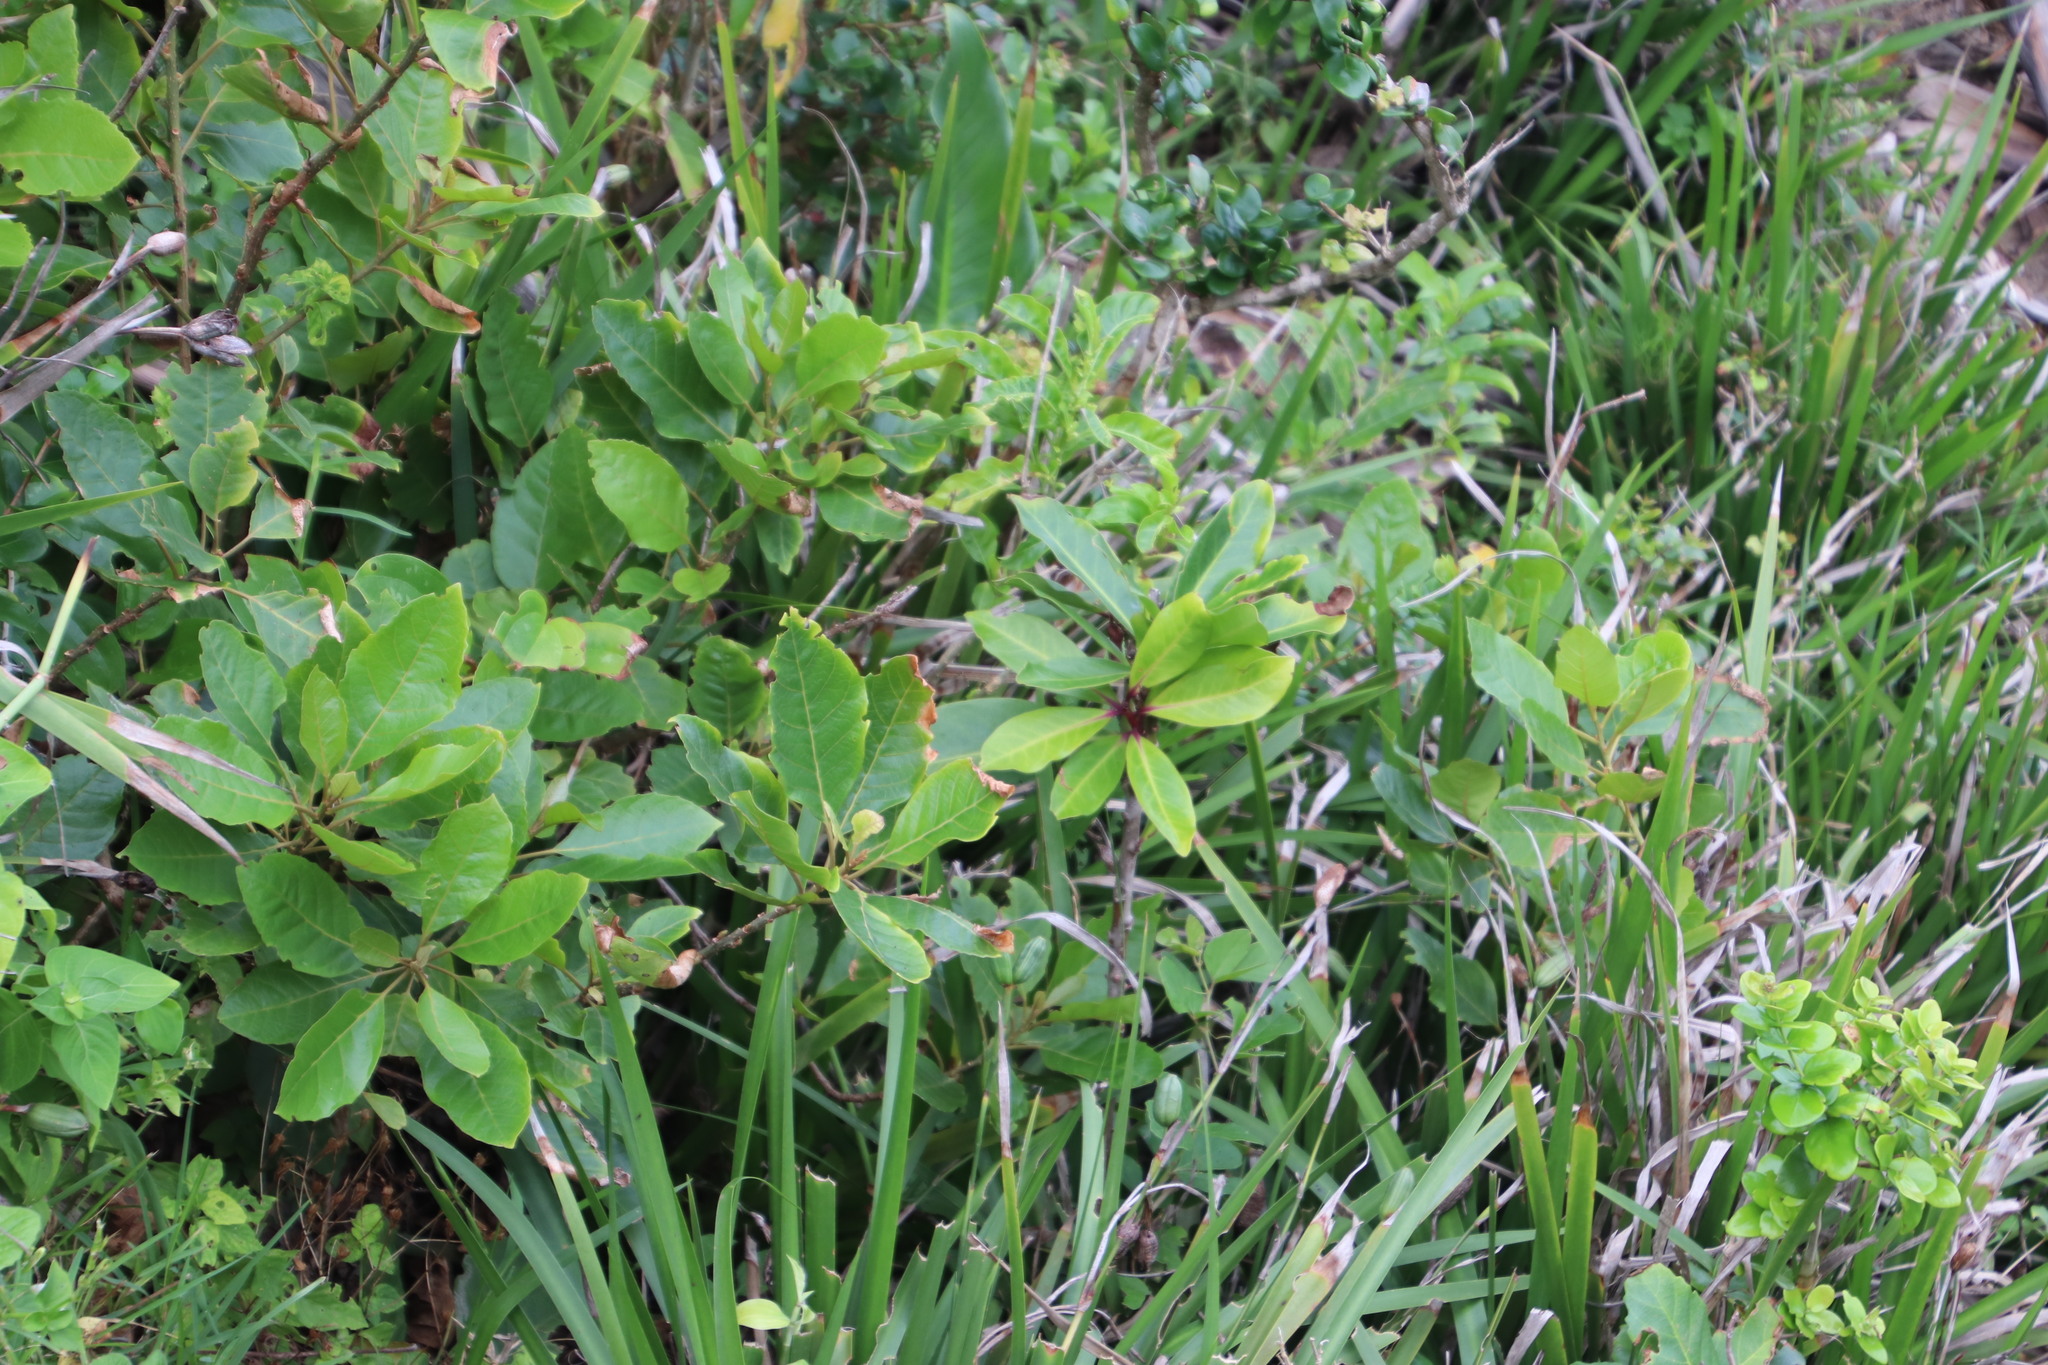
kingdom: Plantae
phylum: Tracheophyta
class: Magnoliopsida
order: Ericales
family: Primulaceae
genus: Myrsine
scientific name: Myrsine melanophloeos
